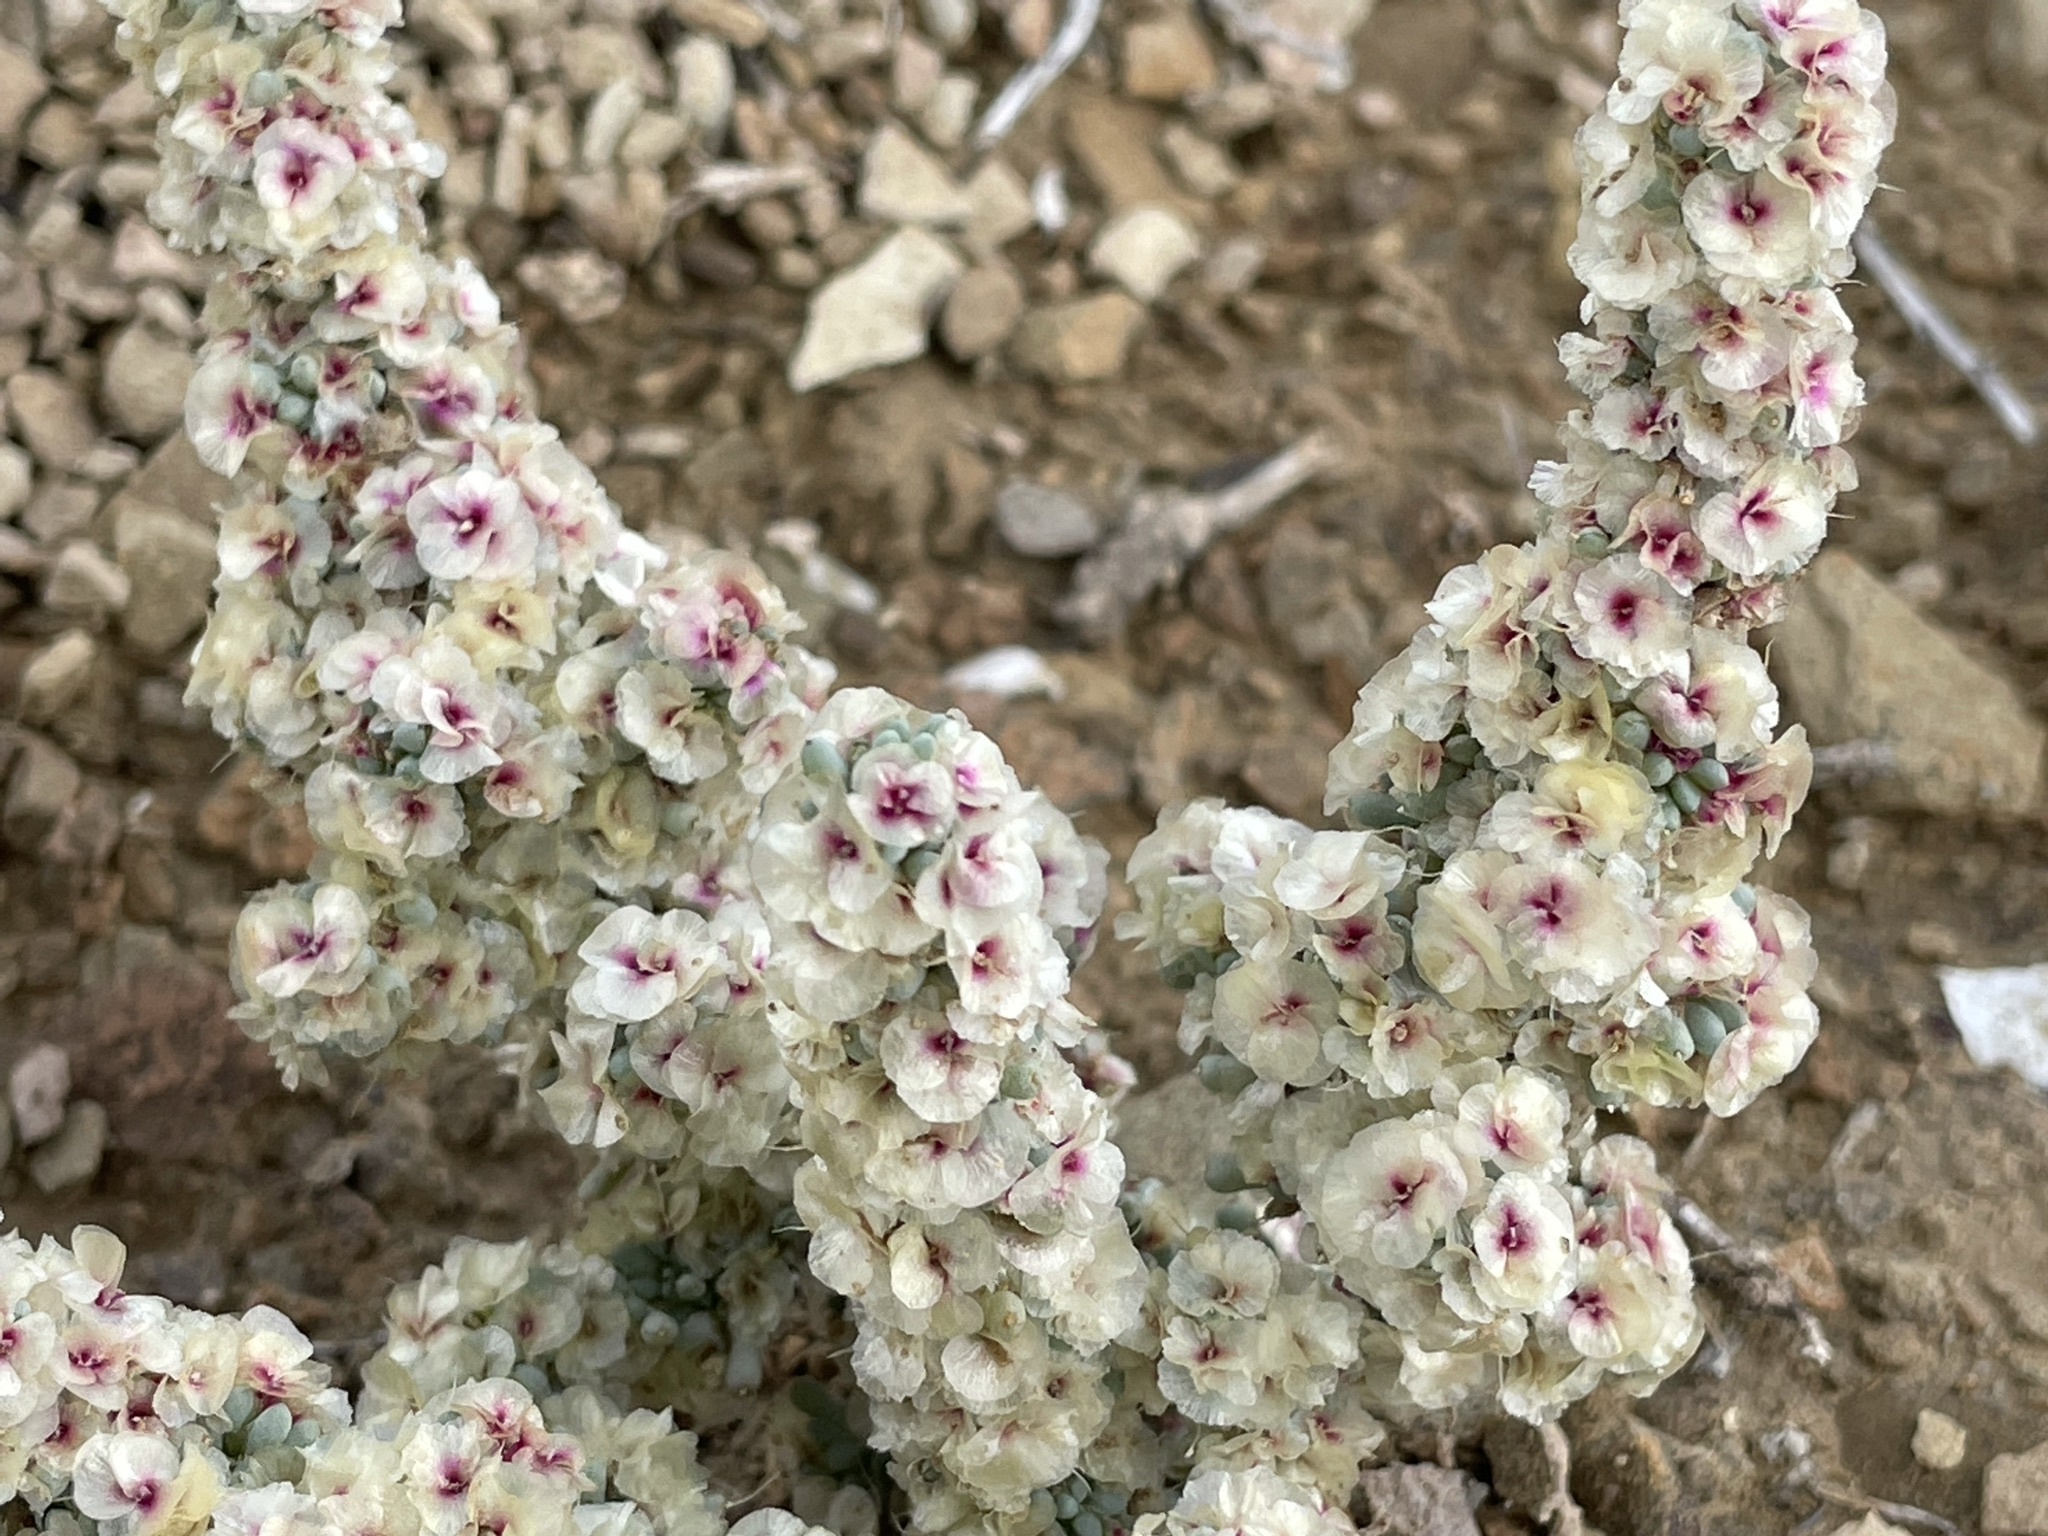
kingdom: Plantae
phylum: Tracheophyta
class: Magnoliopsida
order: Caryophyllales
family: Amaranthaceae
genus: Halogeton
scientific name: Halogeton glomeratus
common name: Saltlover
